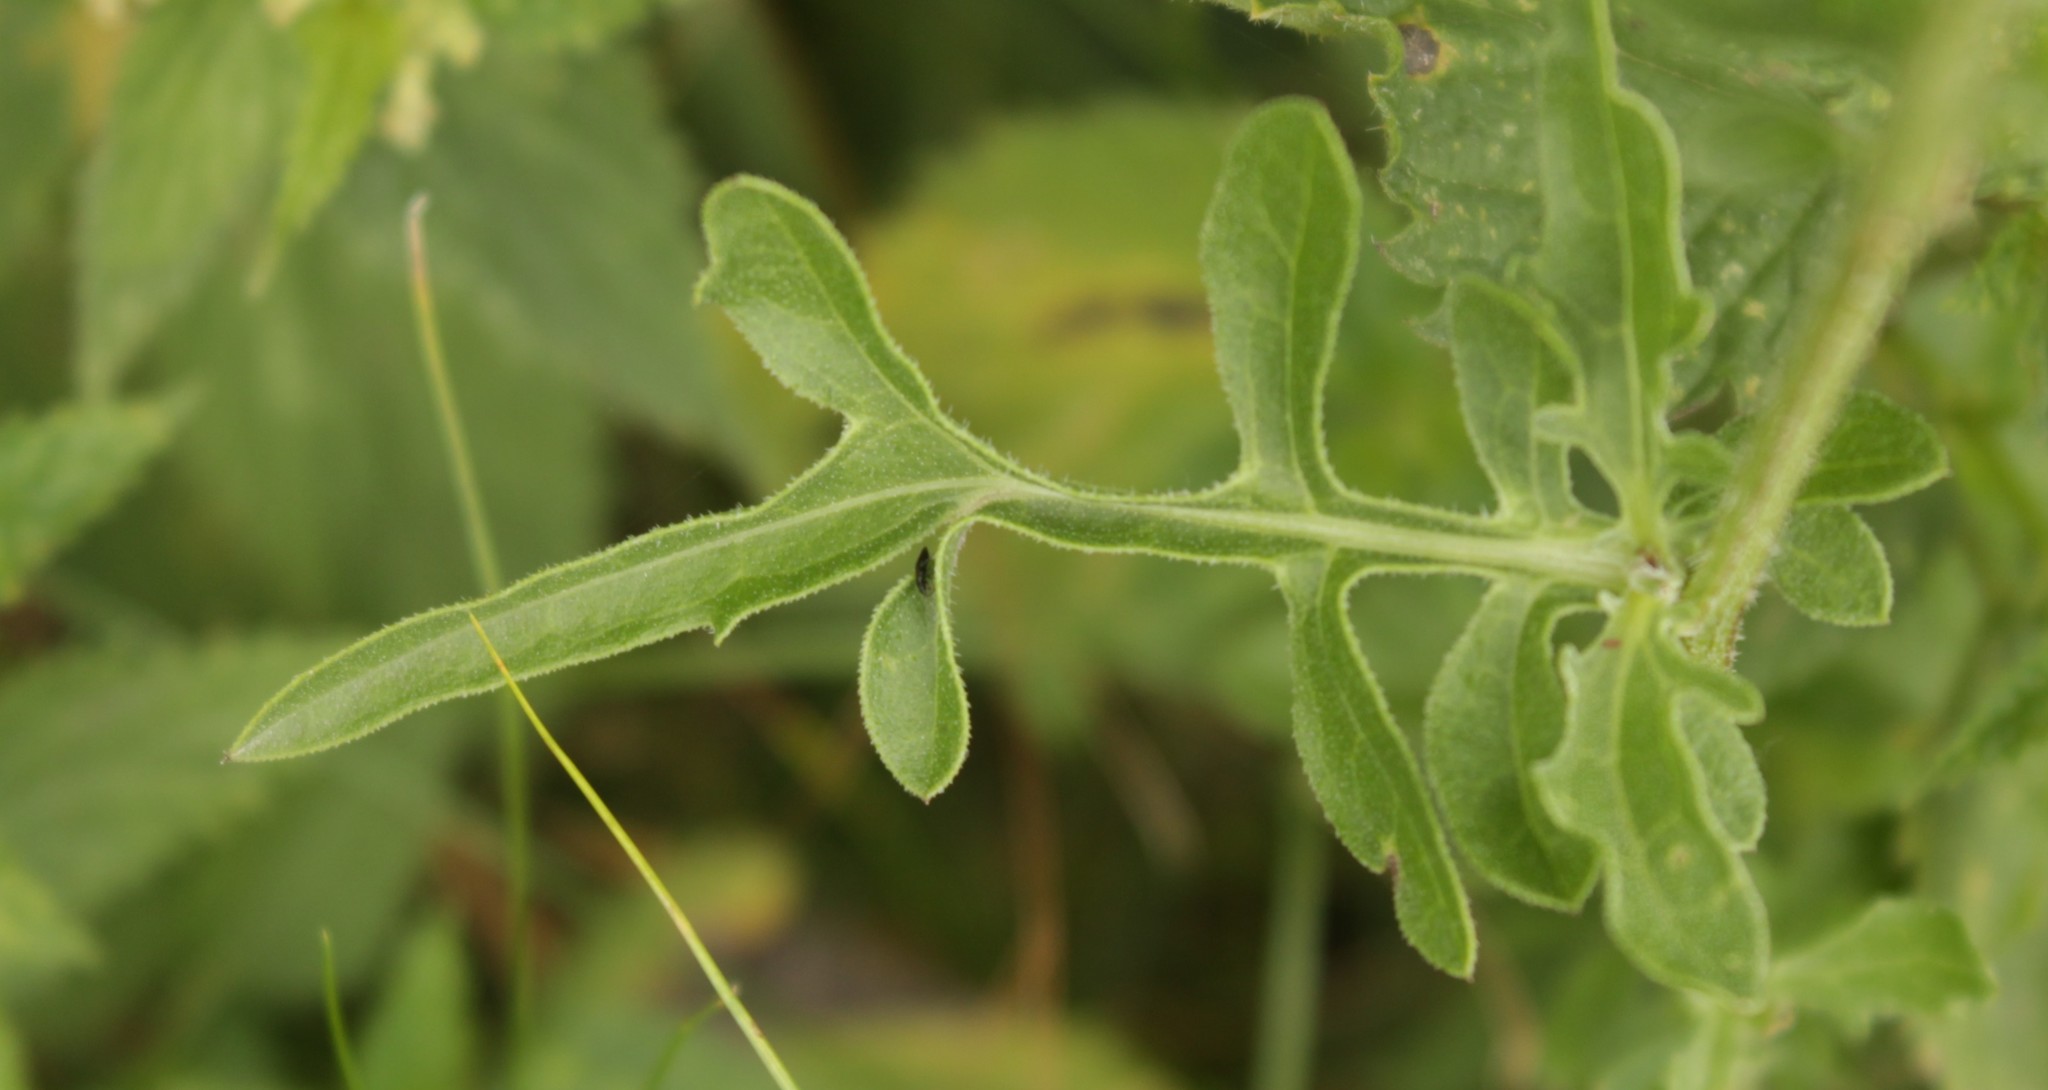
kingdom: Plantae
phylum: Tracheophyta
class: Magnoliopsida
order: Asterales
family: Asteraceae
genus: Centaurea
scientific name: Centaurea scabiosa
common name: Greater knapweed
